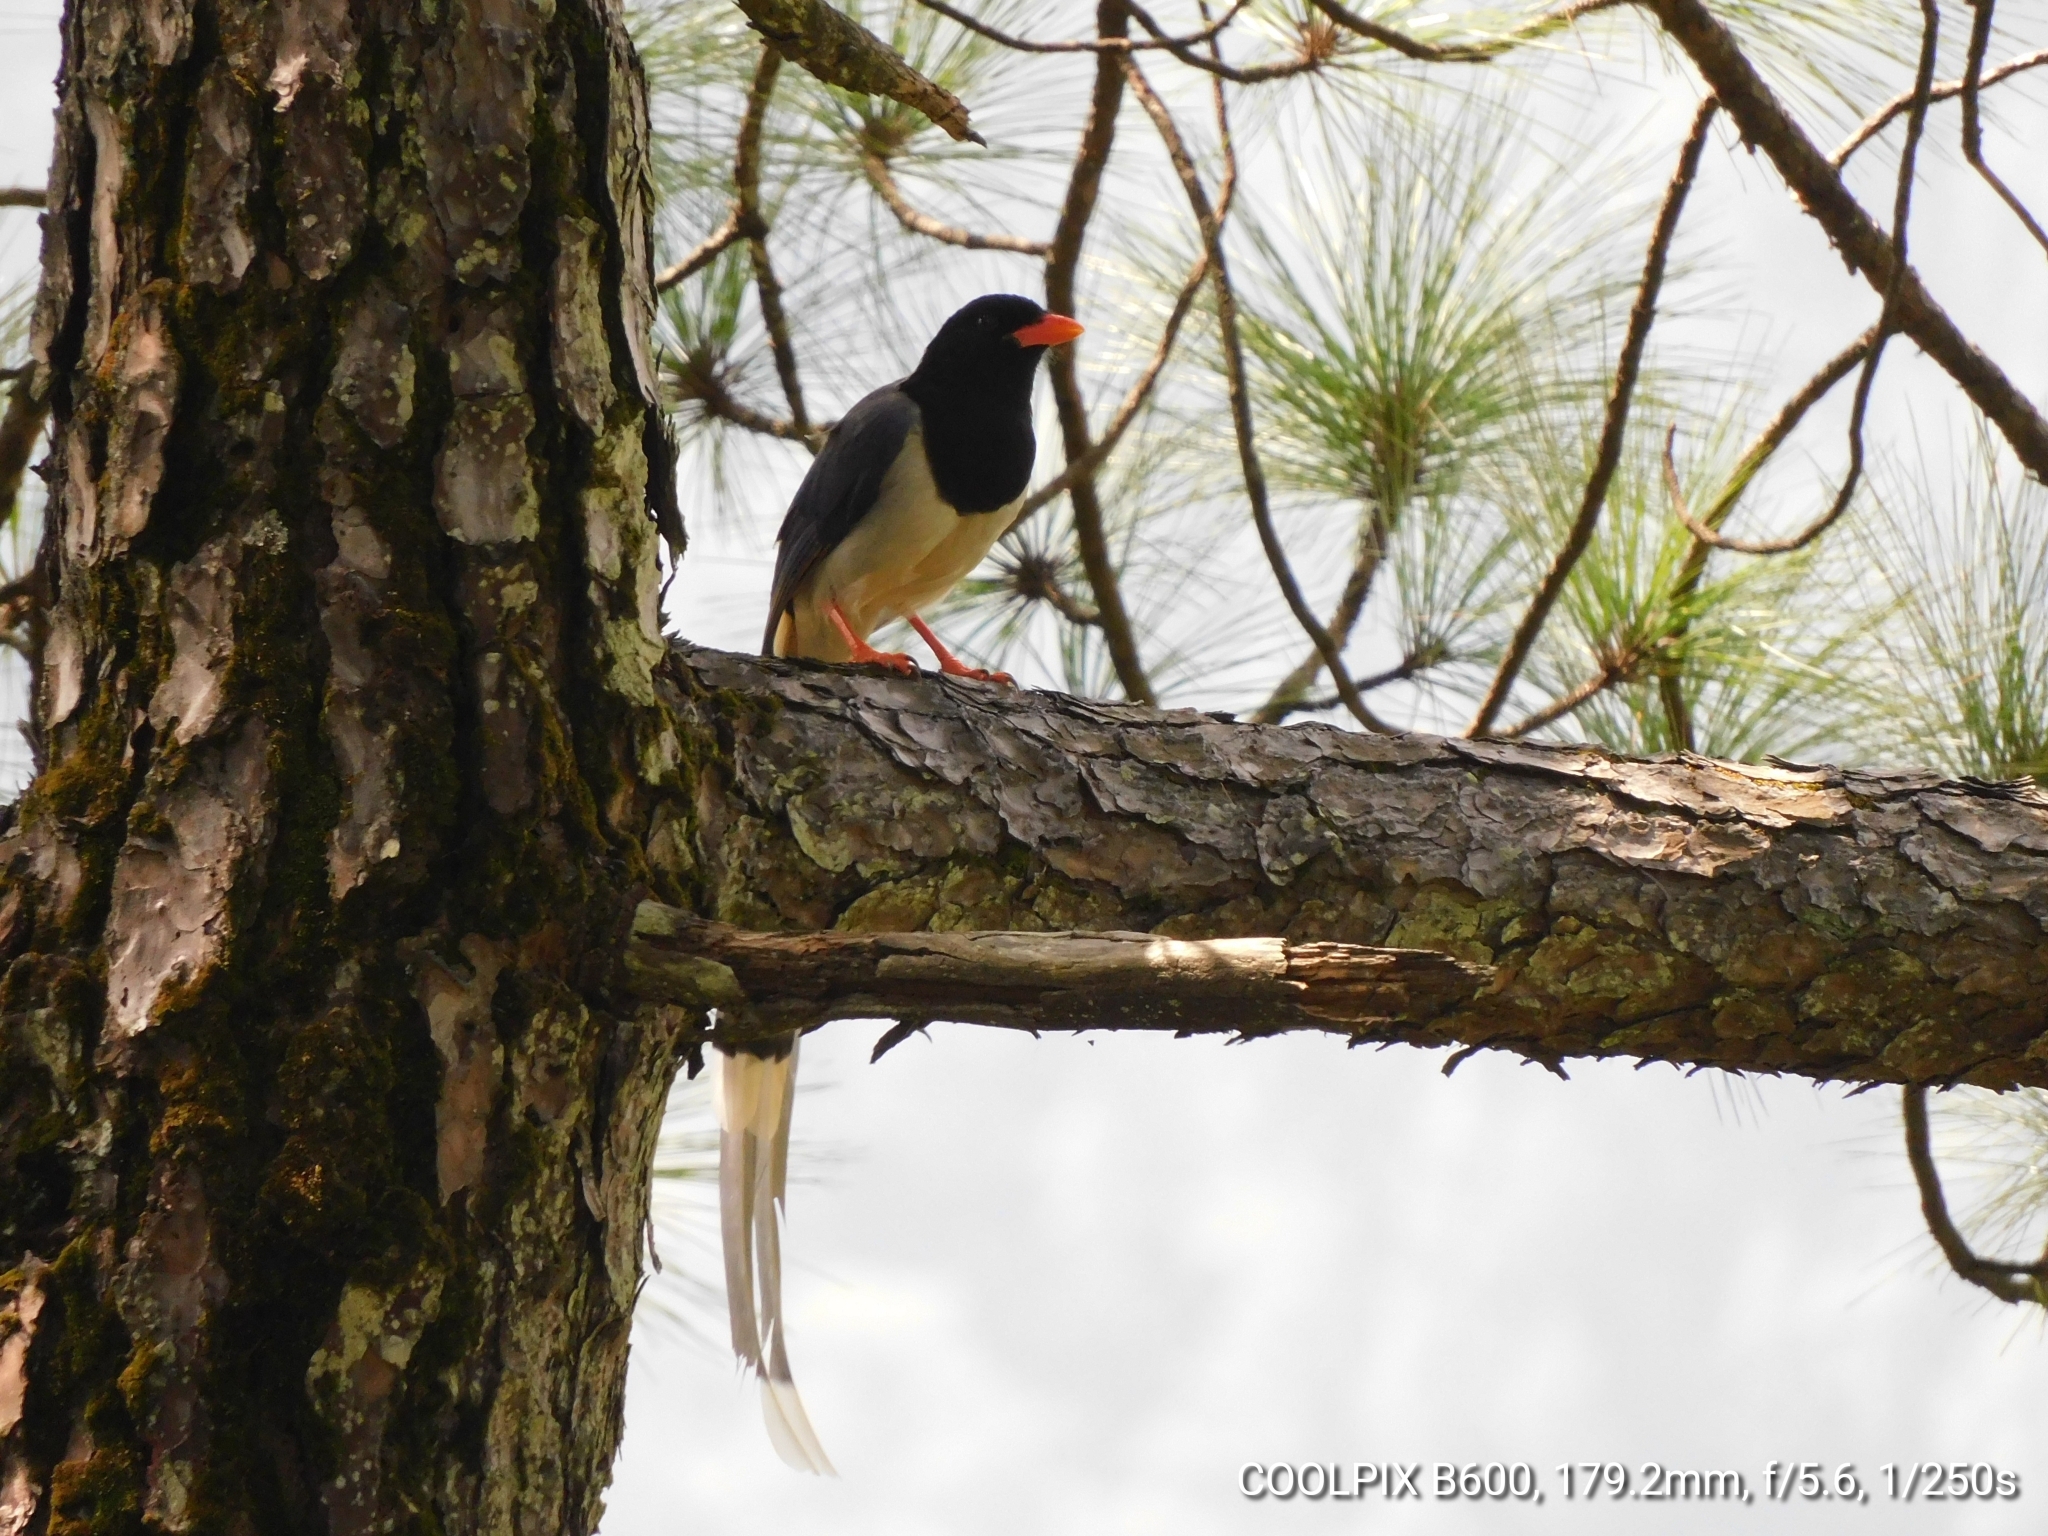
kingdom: Animalia
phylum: Chordata
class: Aves
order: Passeriformes
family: Corvidae
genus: Urocissa
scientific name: Urocissa erythroryncha
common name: Red-billed blue magpie
